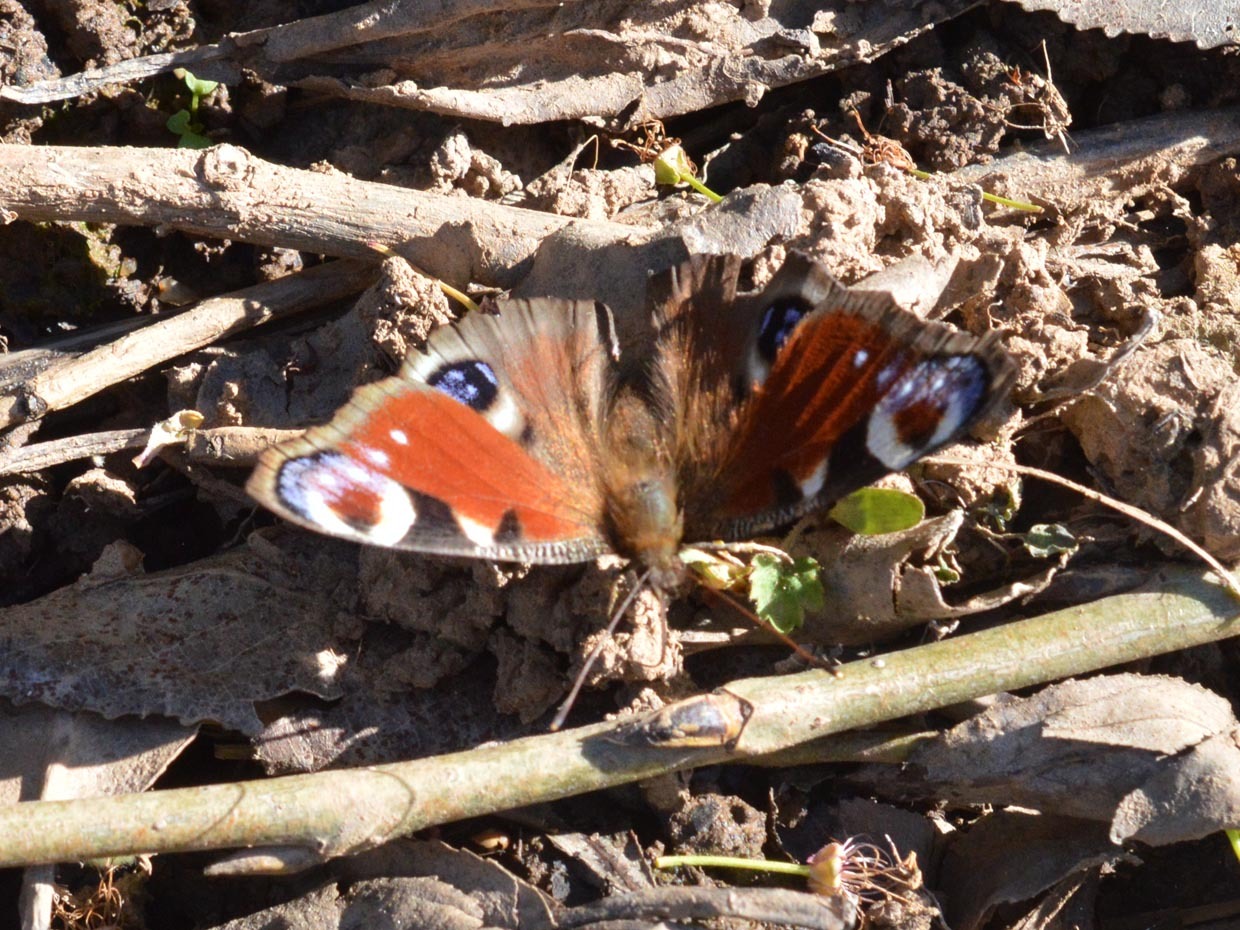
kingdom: Animalia
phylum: Arthropoda
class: Insecta
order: Lepidoptera
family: Nymphalidae
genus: Aglais
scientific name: Aglais io
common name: Peacock
